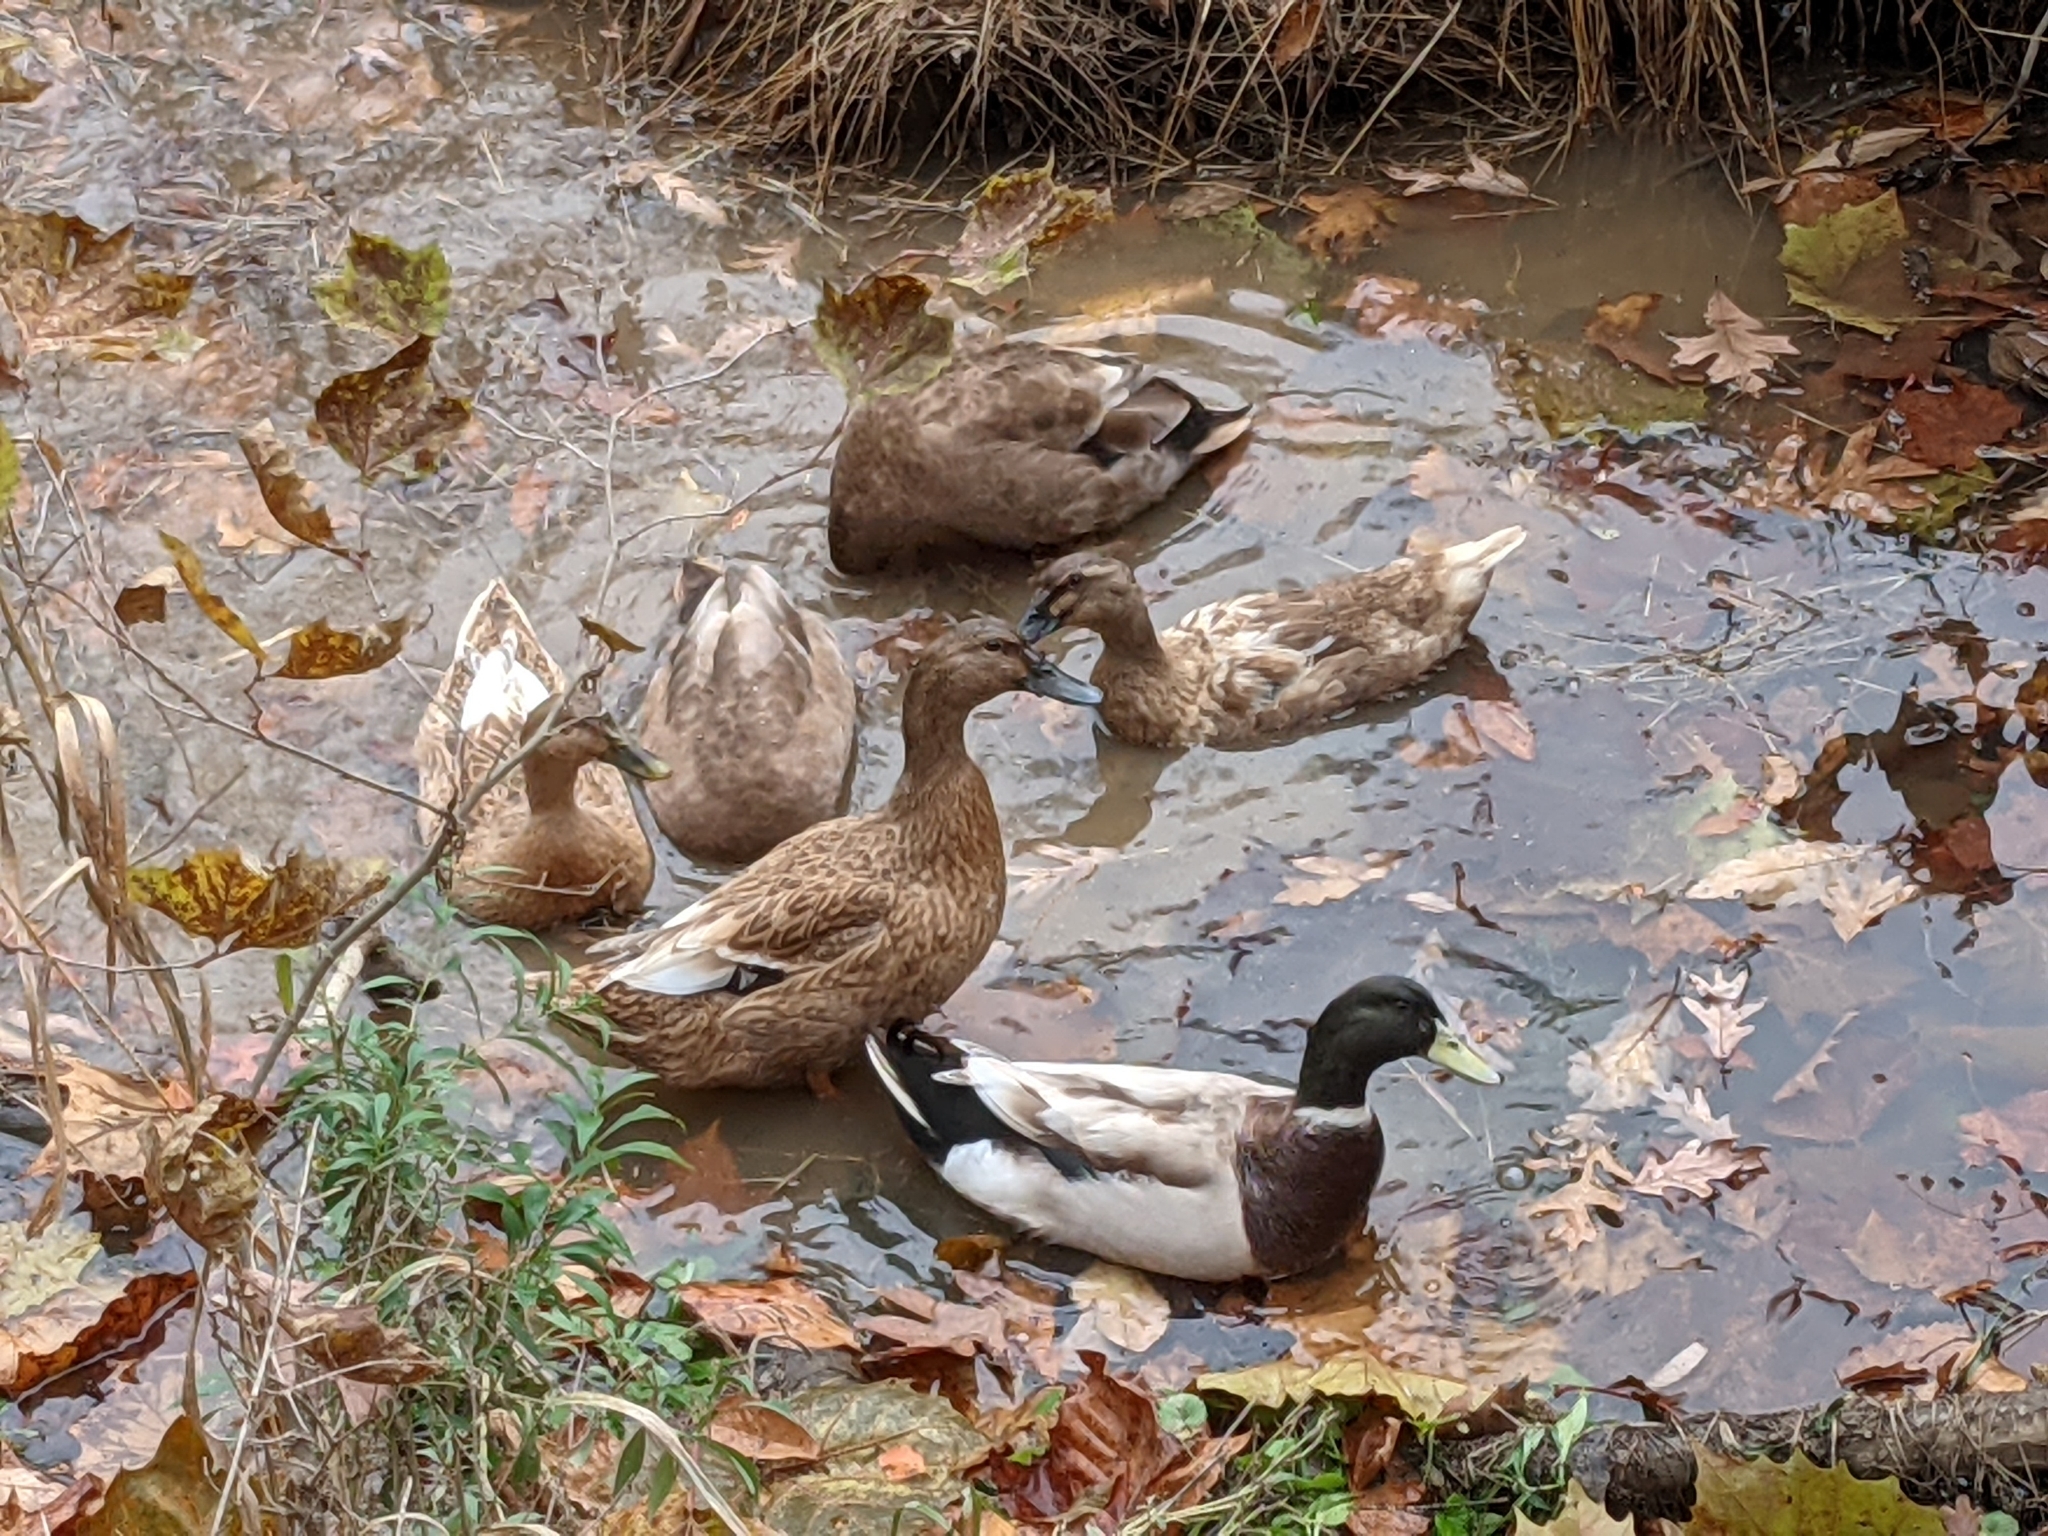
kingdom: Animalia
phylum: Chordata
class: Aves
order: Anseriformes
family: Anatidae
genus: Anas
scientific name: Anas platyrhynchos
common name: Mallard
